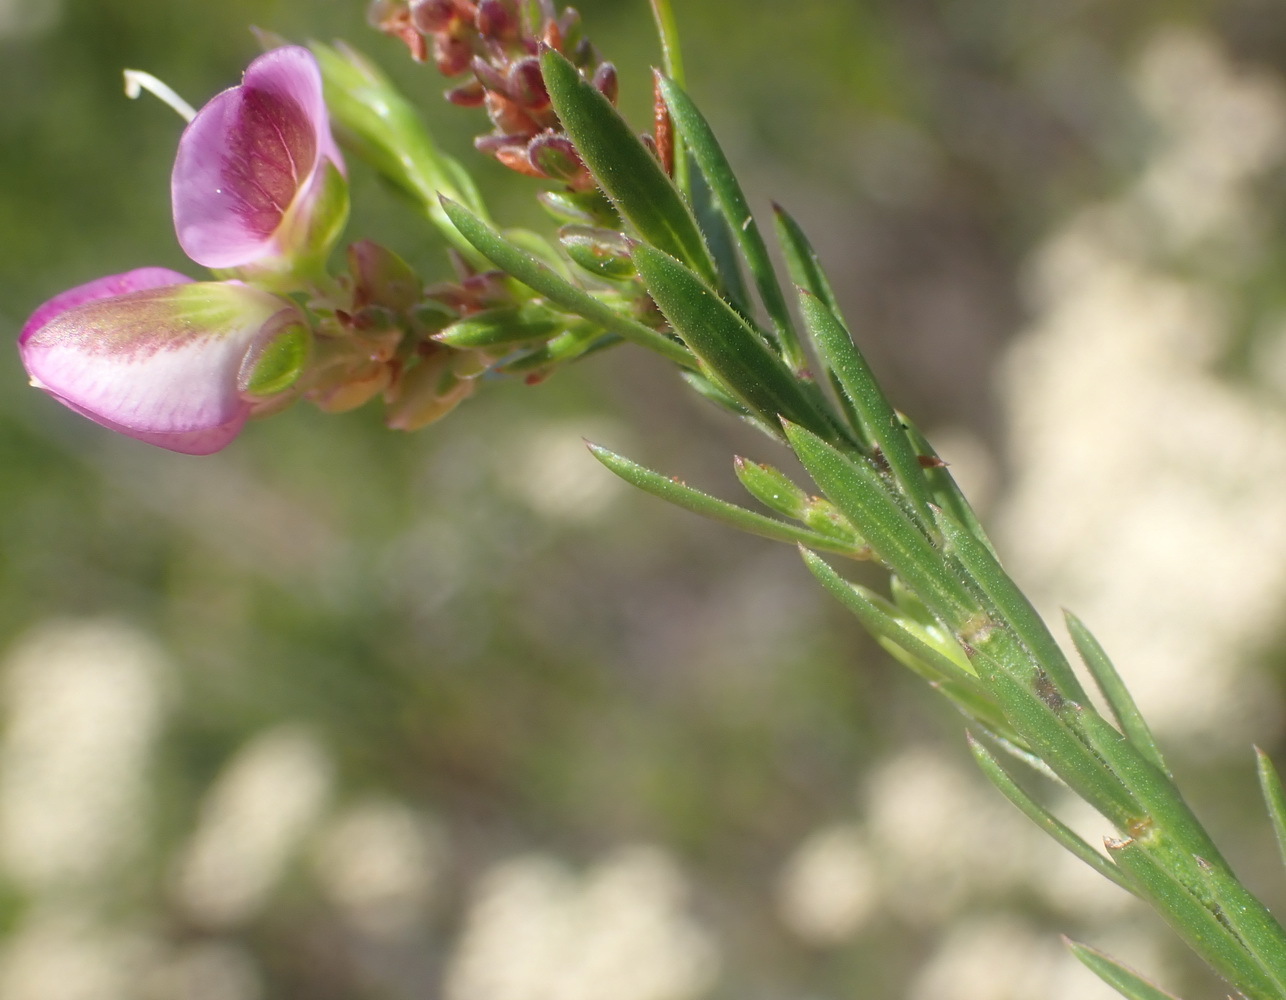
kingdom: Plantae
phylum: Tracheophyta
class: Magnoliopsida
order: Fabales
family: Polygalaceae
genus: Polygala
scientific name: Polygala ericifolia
